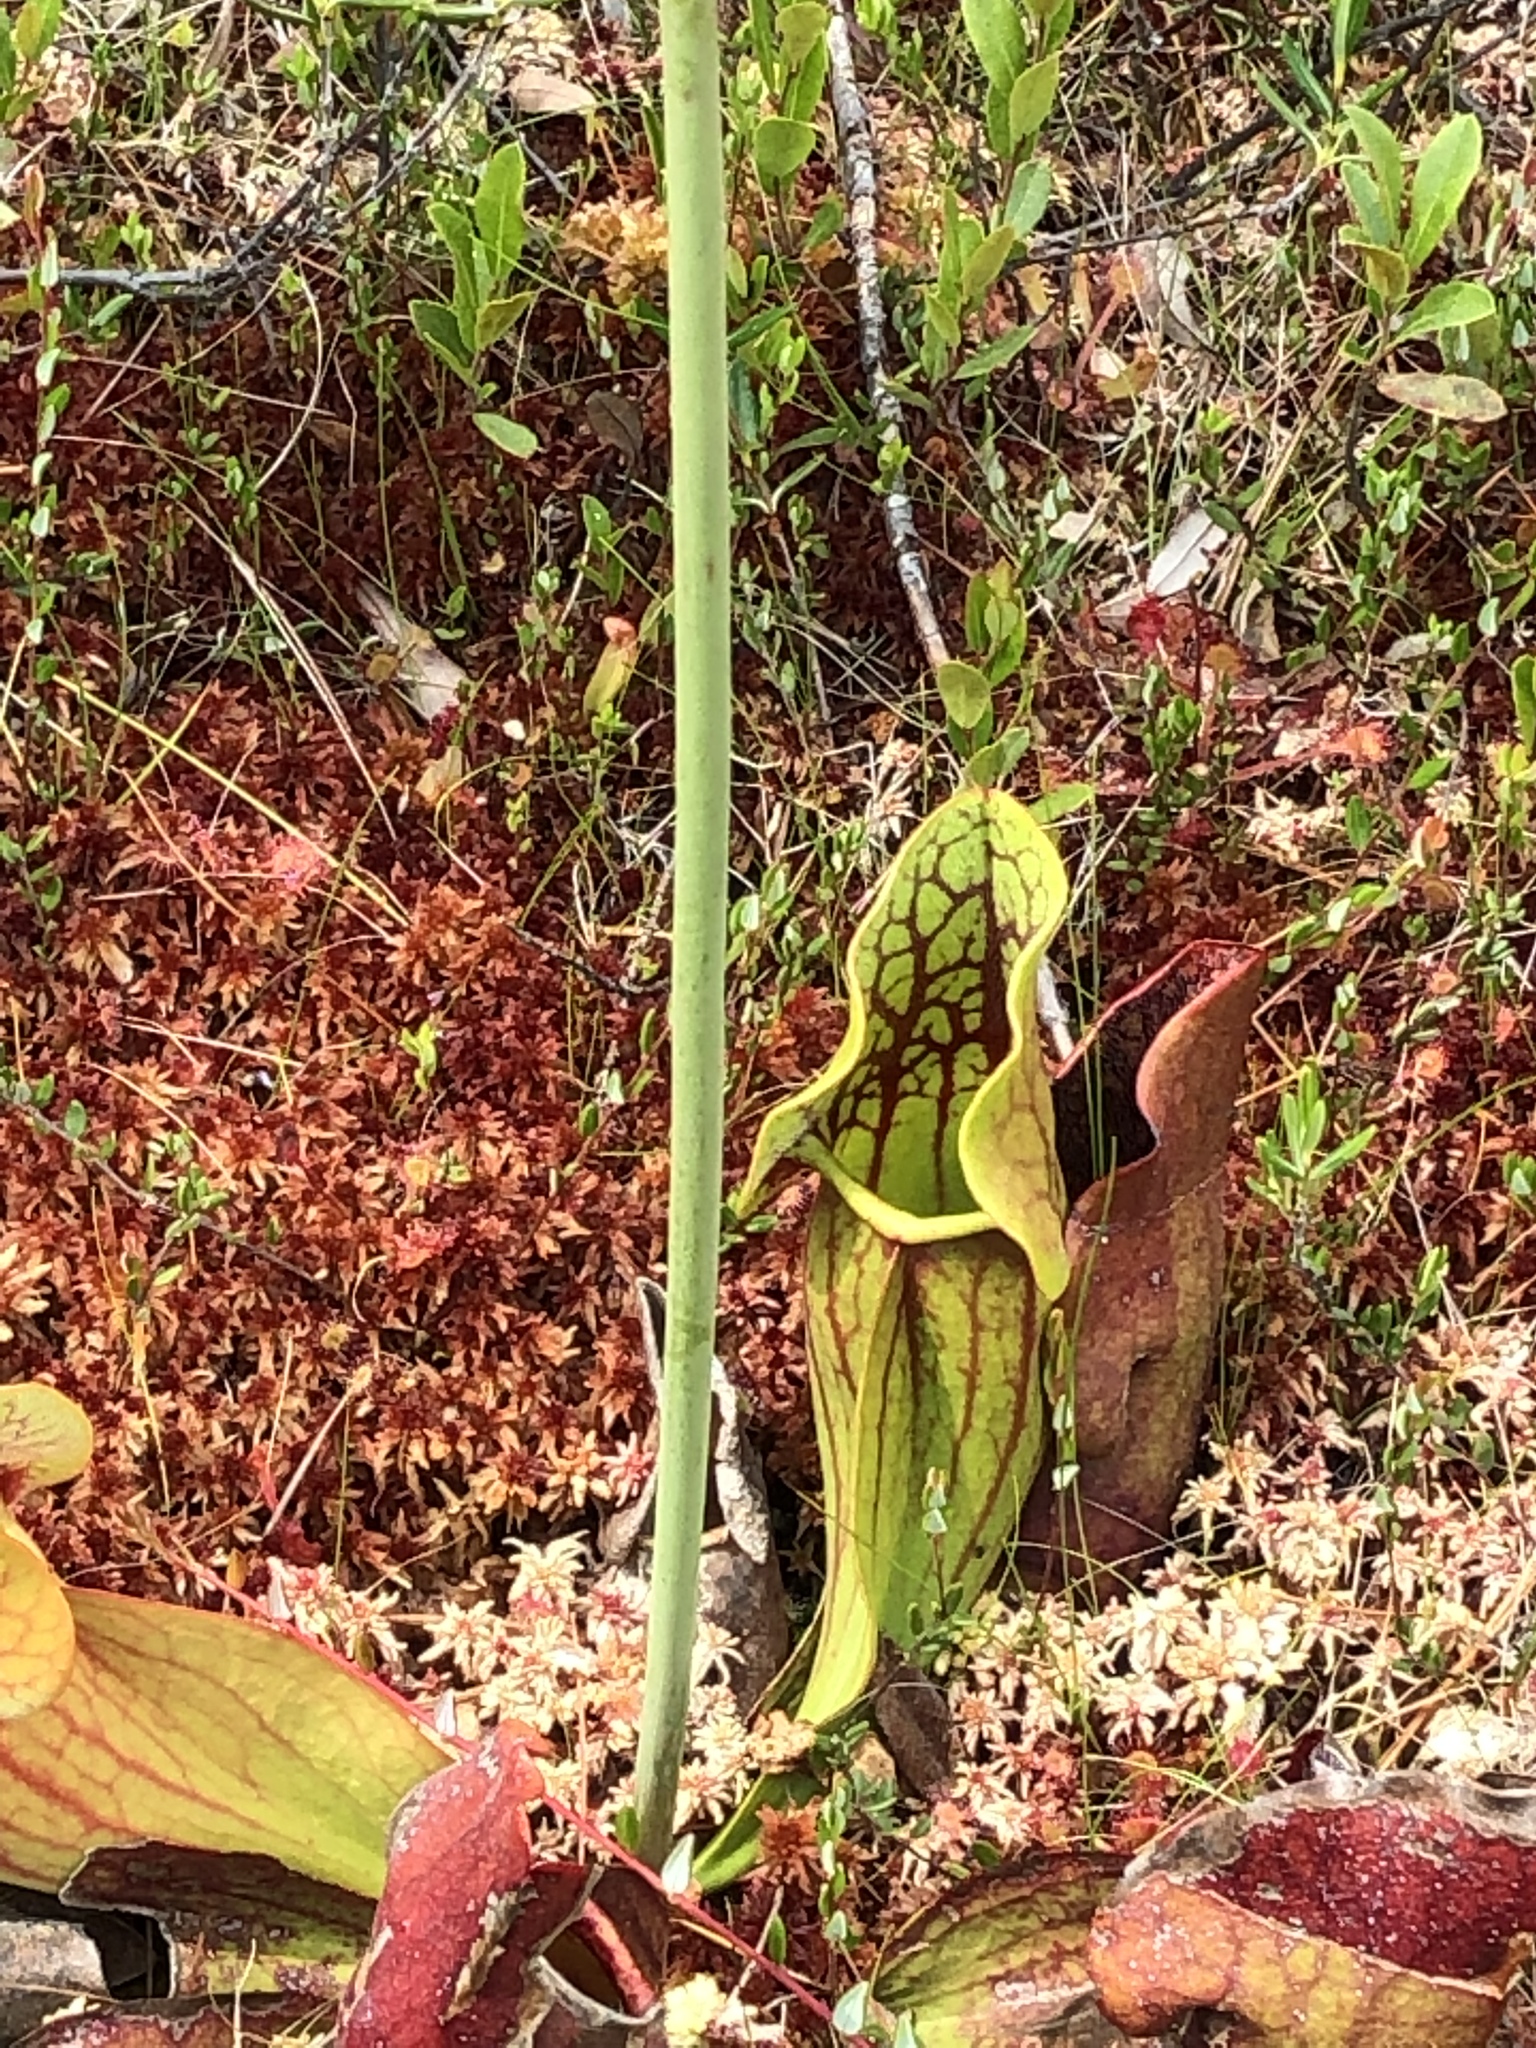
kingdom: Plantae
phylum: Tracheophyta
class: Magnoliopsida
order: Ericales
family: Sarraceniaceae
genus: Sarracenia
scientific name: Sarracenia purpurea
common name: Pitcherplant
